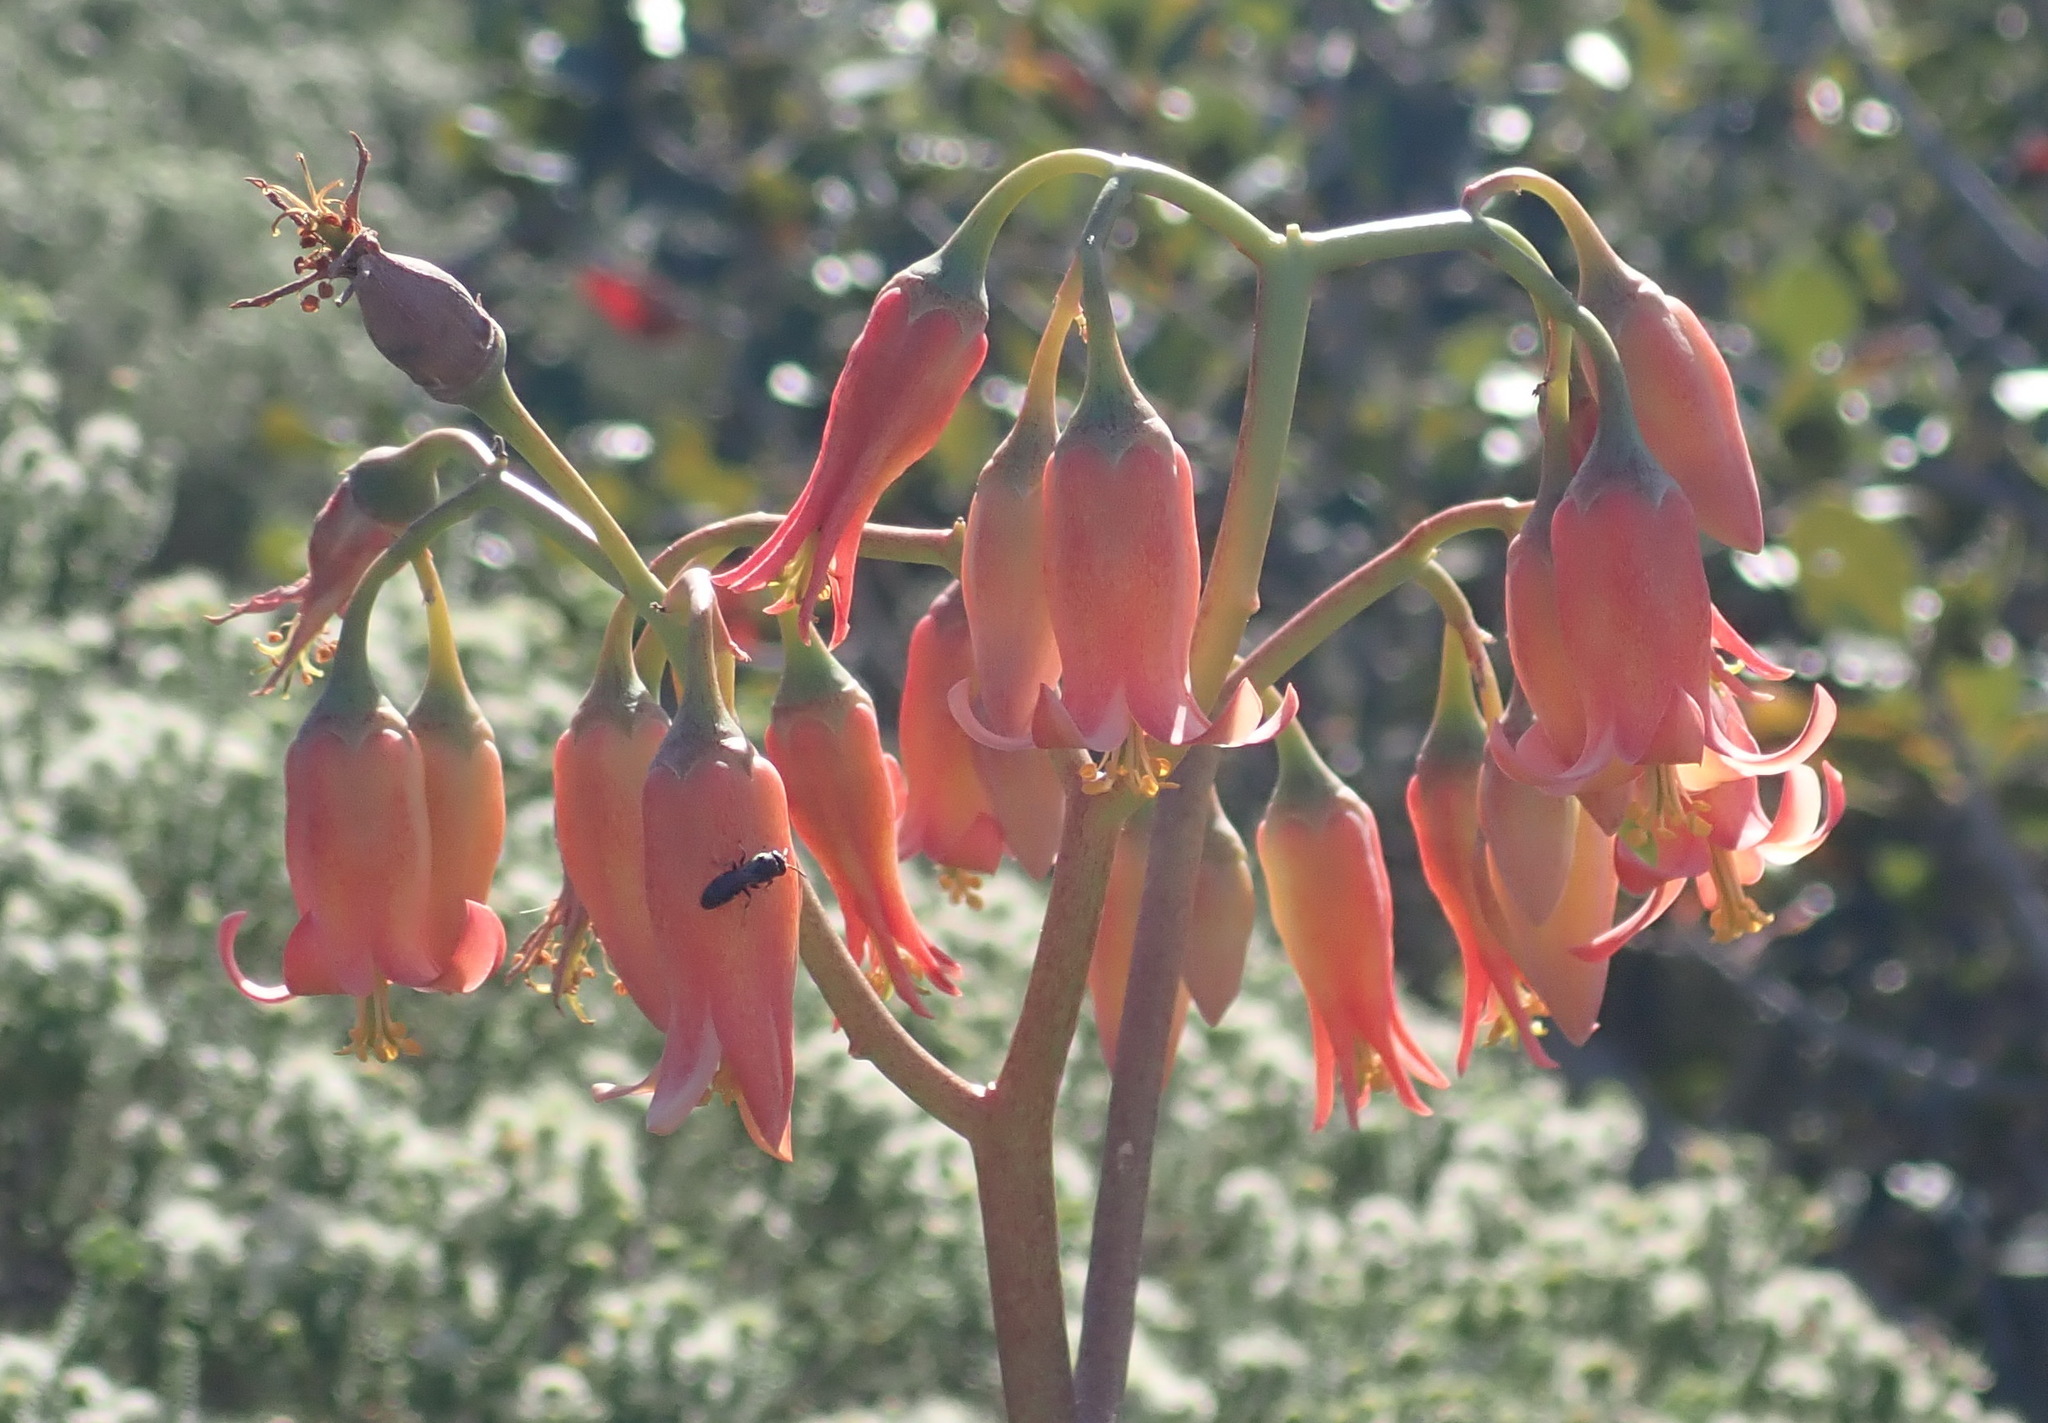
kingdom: Plantae
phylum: Tracheophyta
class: Magnoliopsida
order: Saxifragales
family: Crassulaceae
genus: Cotyledon
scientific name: Cotyledon orbiculata
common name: Pig's ear
